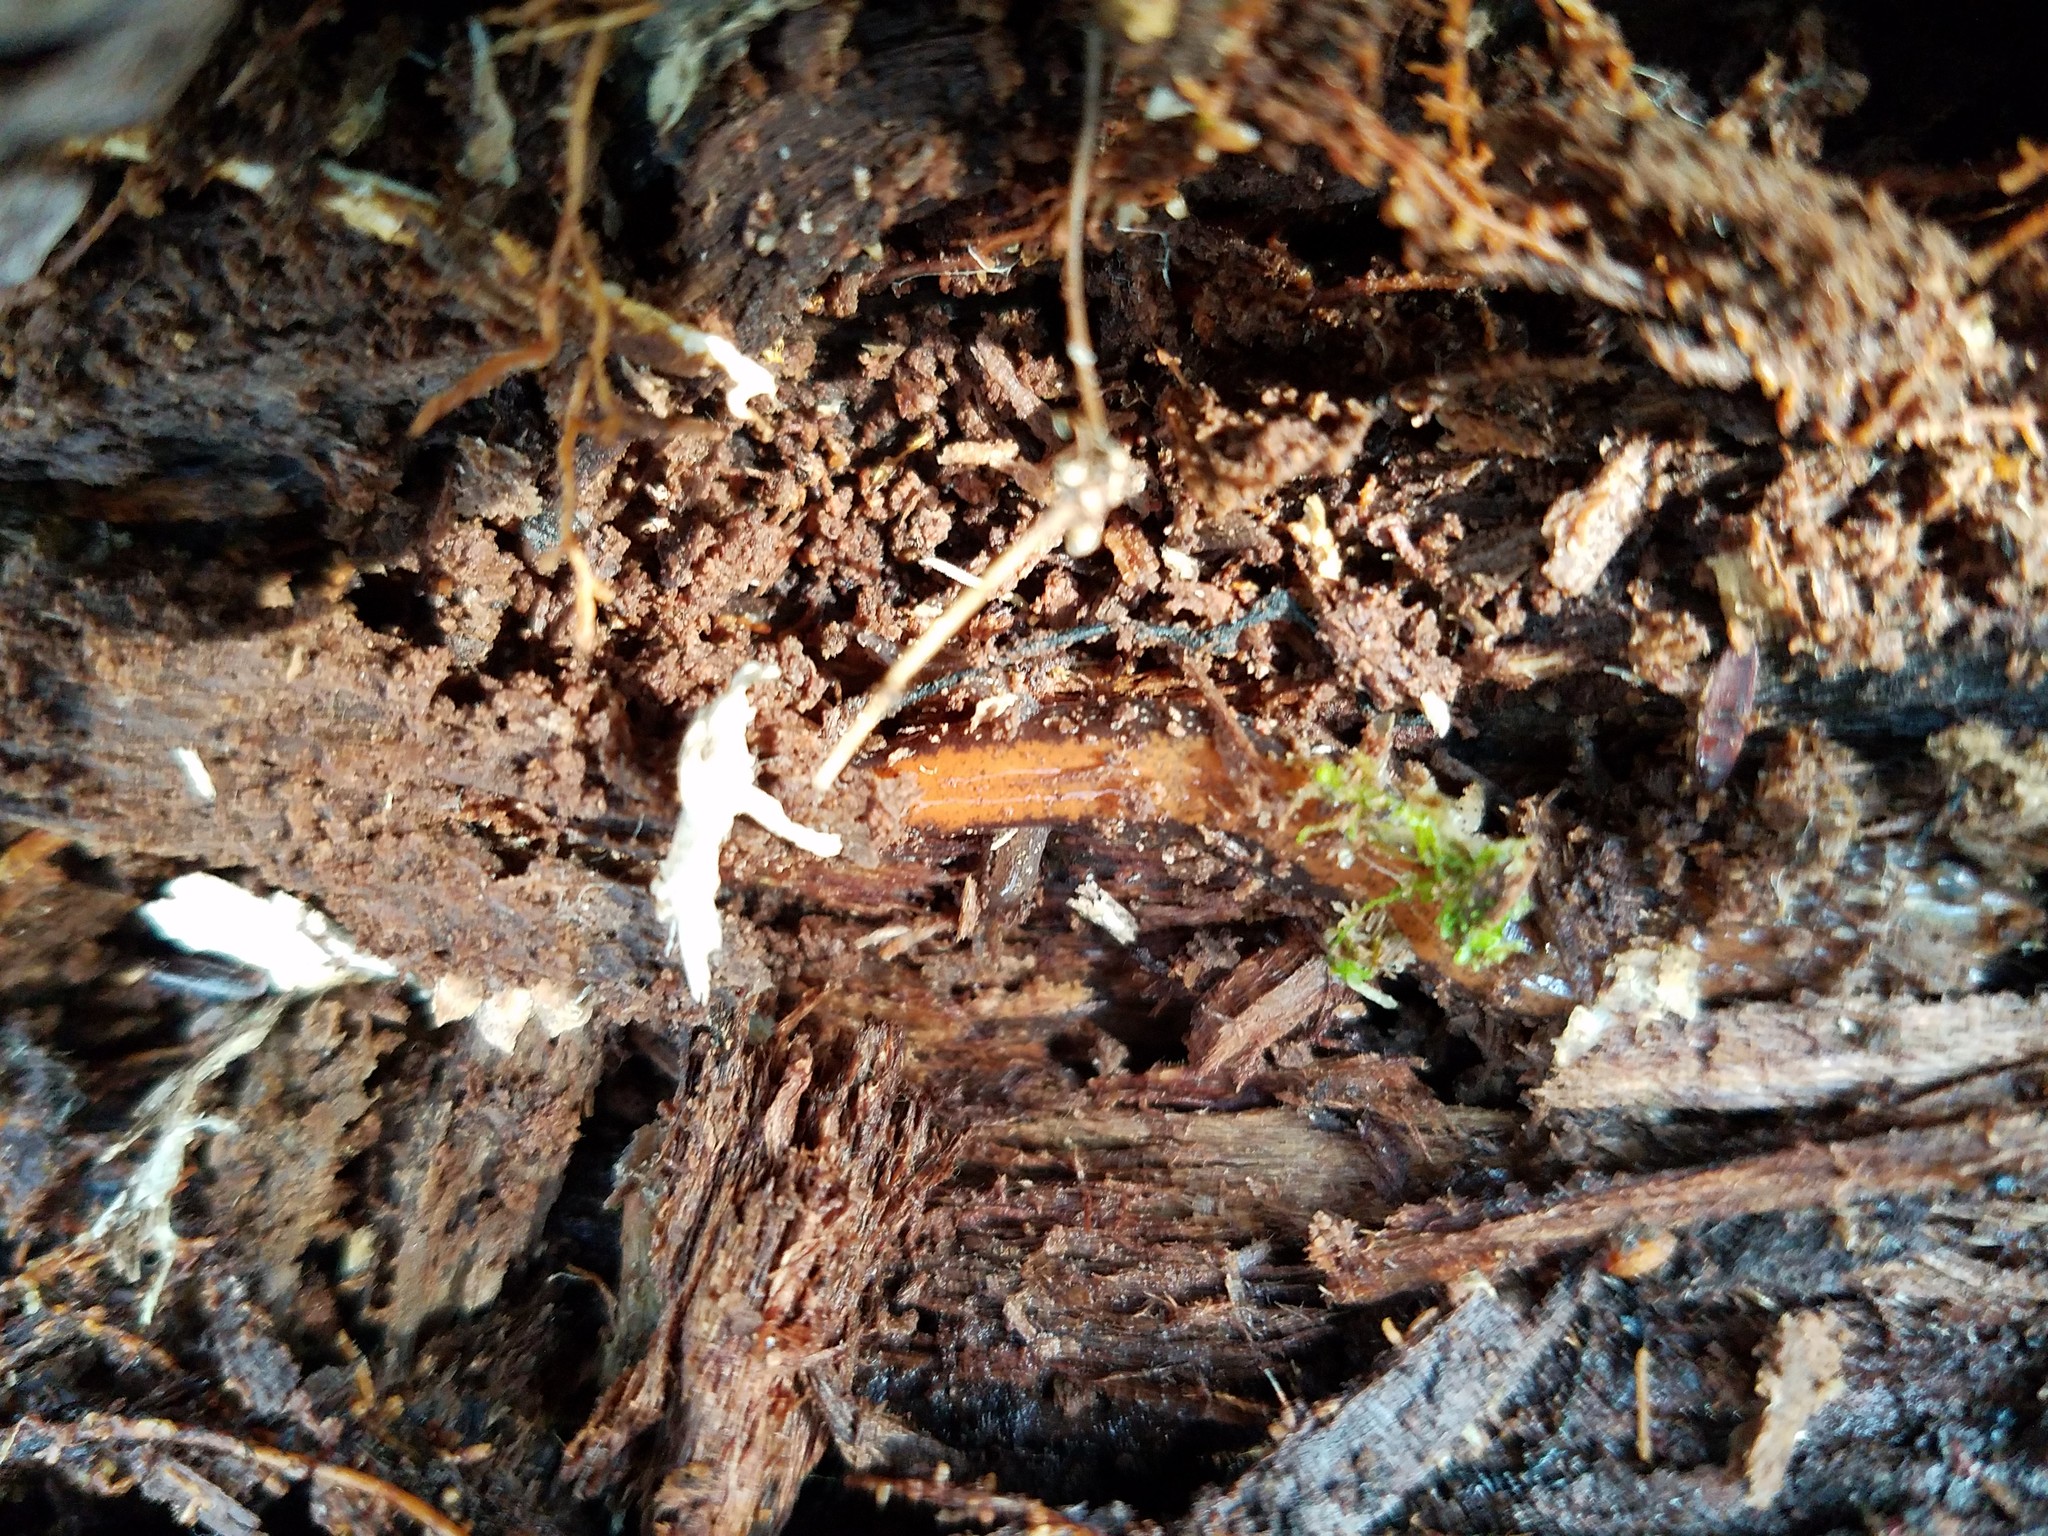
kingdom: Animalia
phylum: Chordata
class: Amphibia
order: Caudata
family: Plethodontidae
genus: Plethodon
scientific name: Plethodon cinereus
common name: Redback salamander
